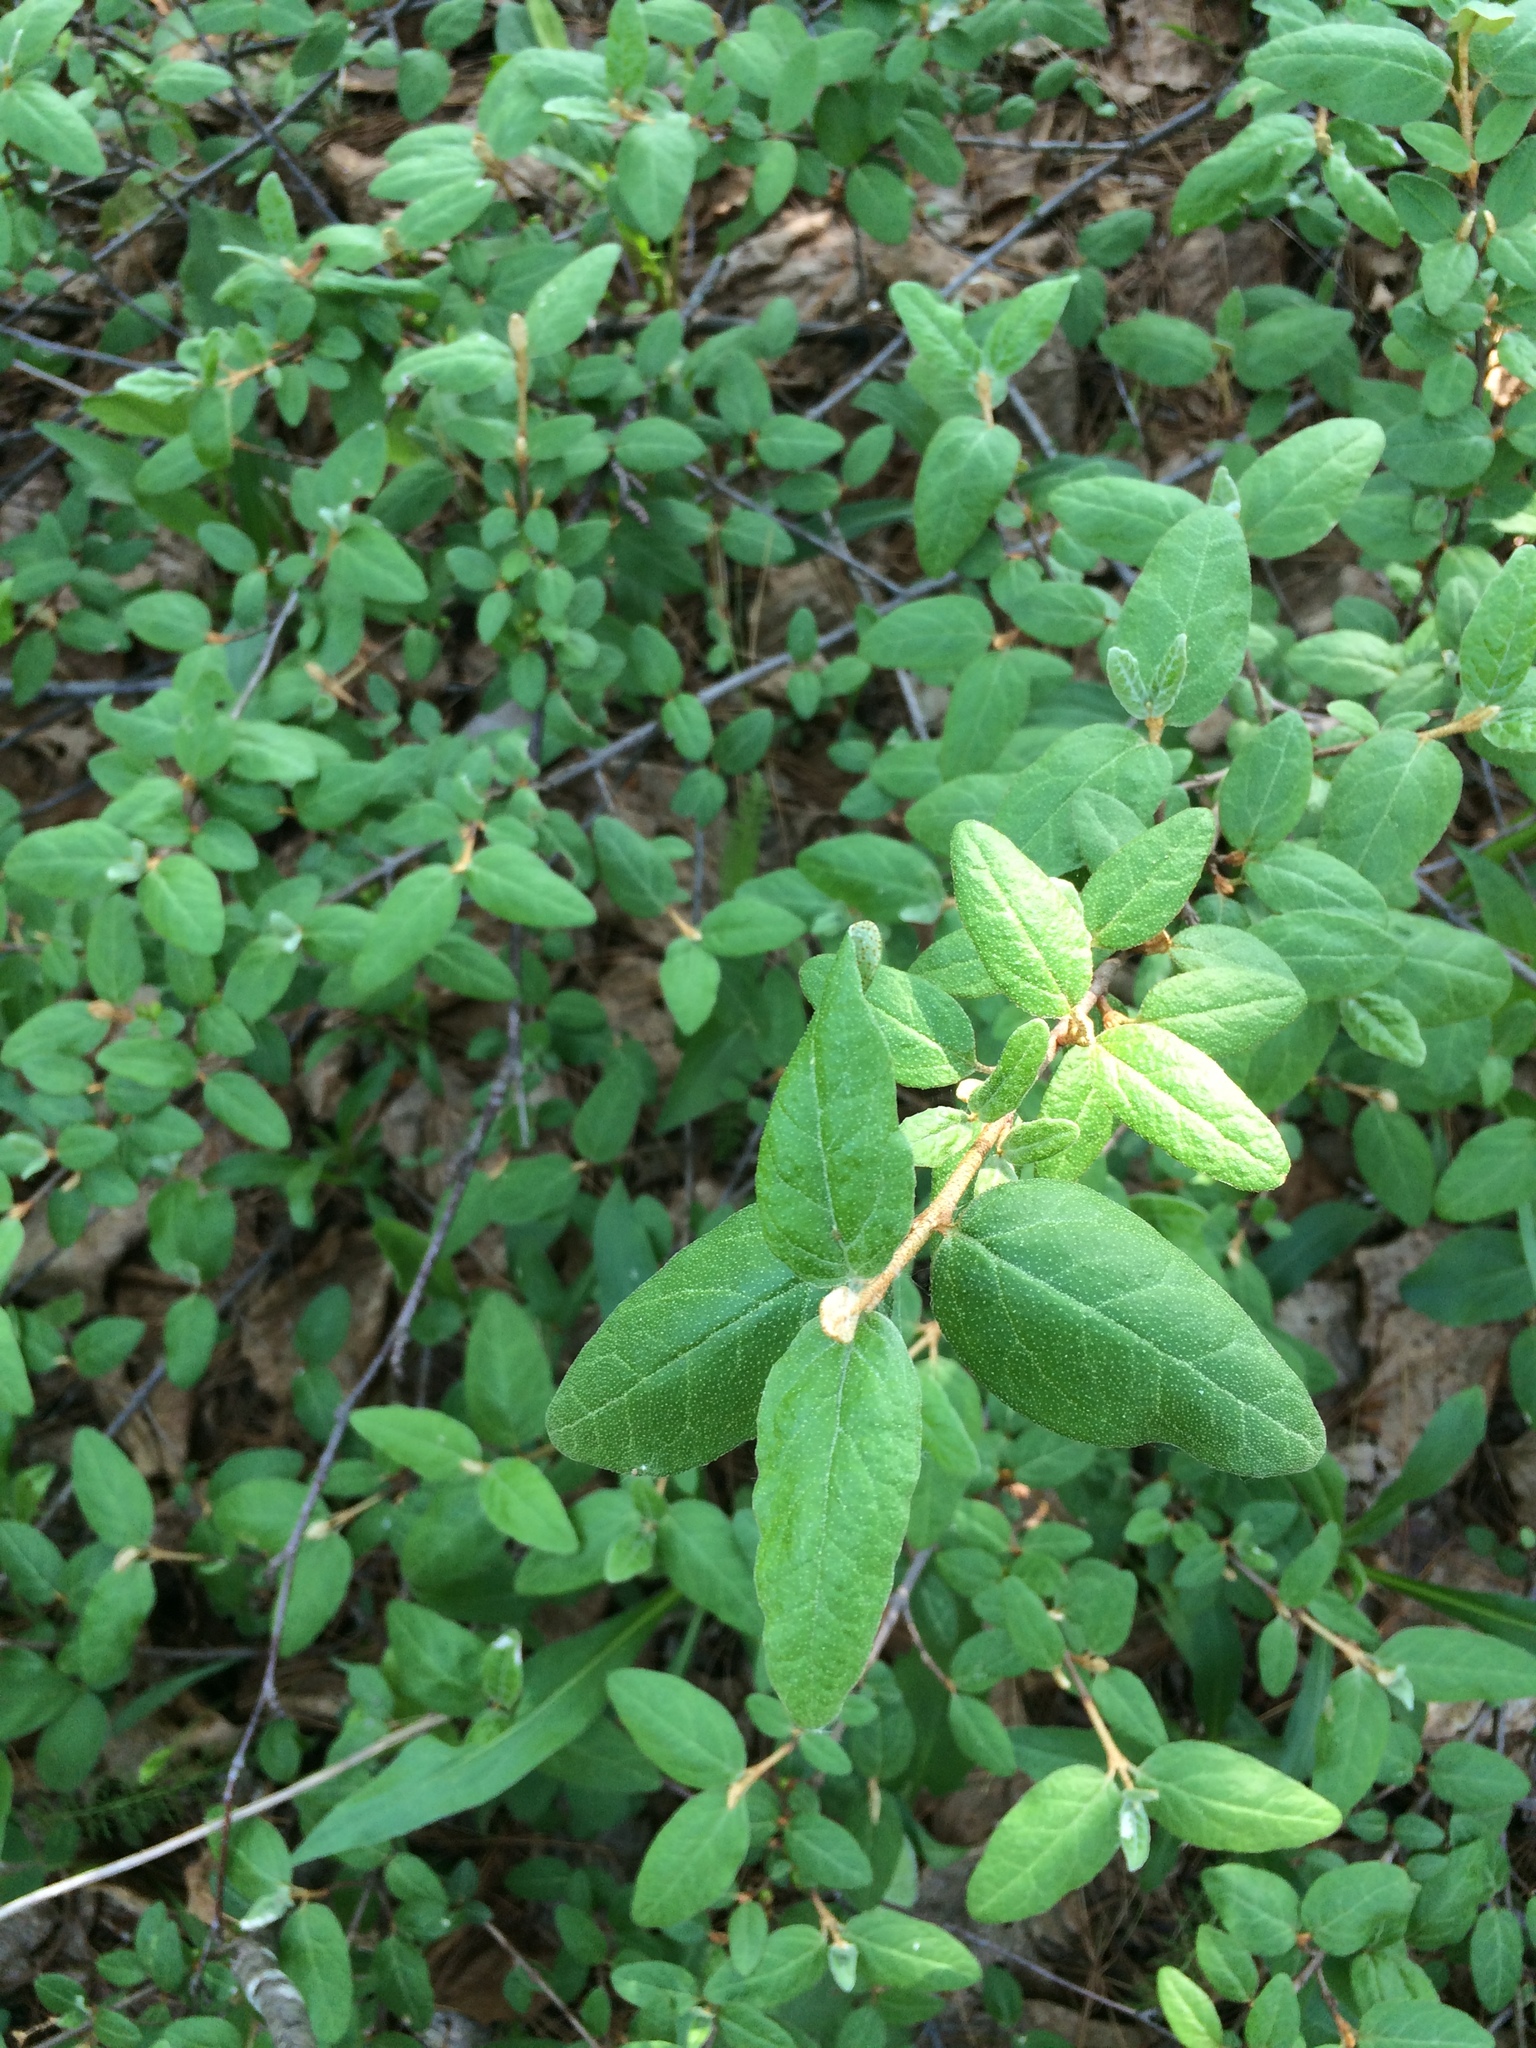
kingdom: Plantae
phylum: Tracheophyta
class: Magnoliopsida
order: Rosales
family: Elaeagnaceae
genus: Shepherdia
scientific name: Shepherdia canadensis
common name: Soapberry
